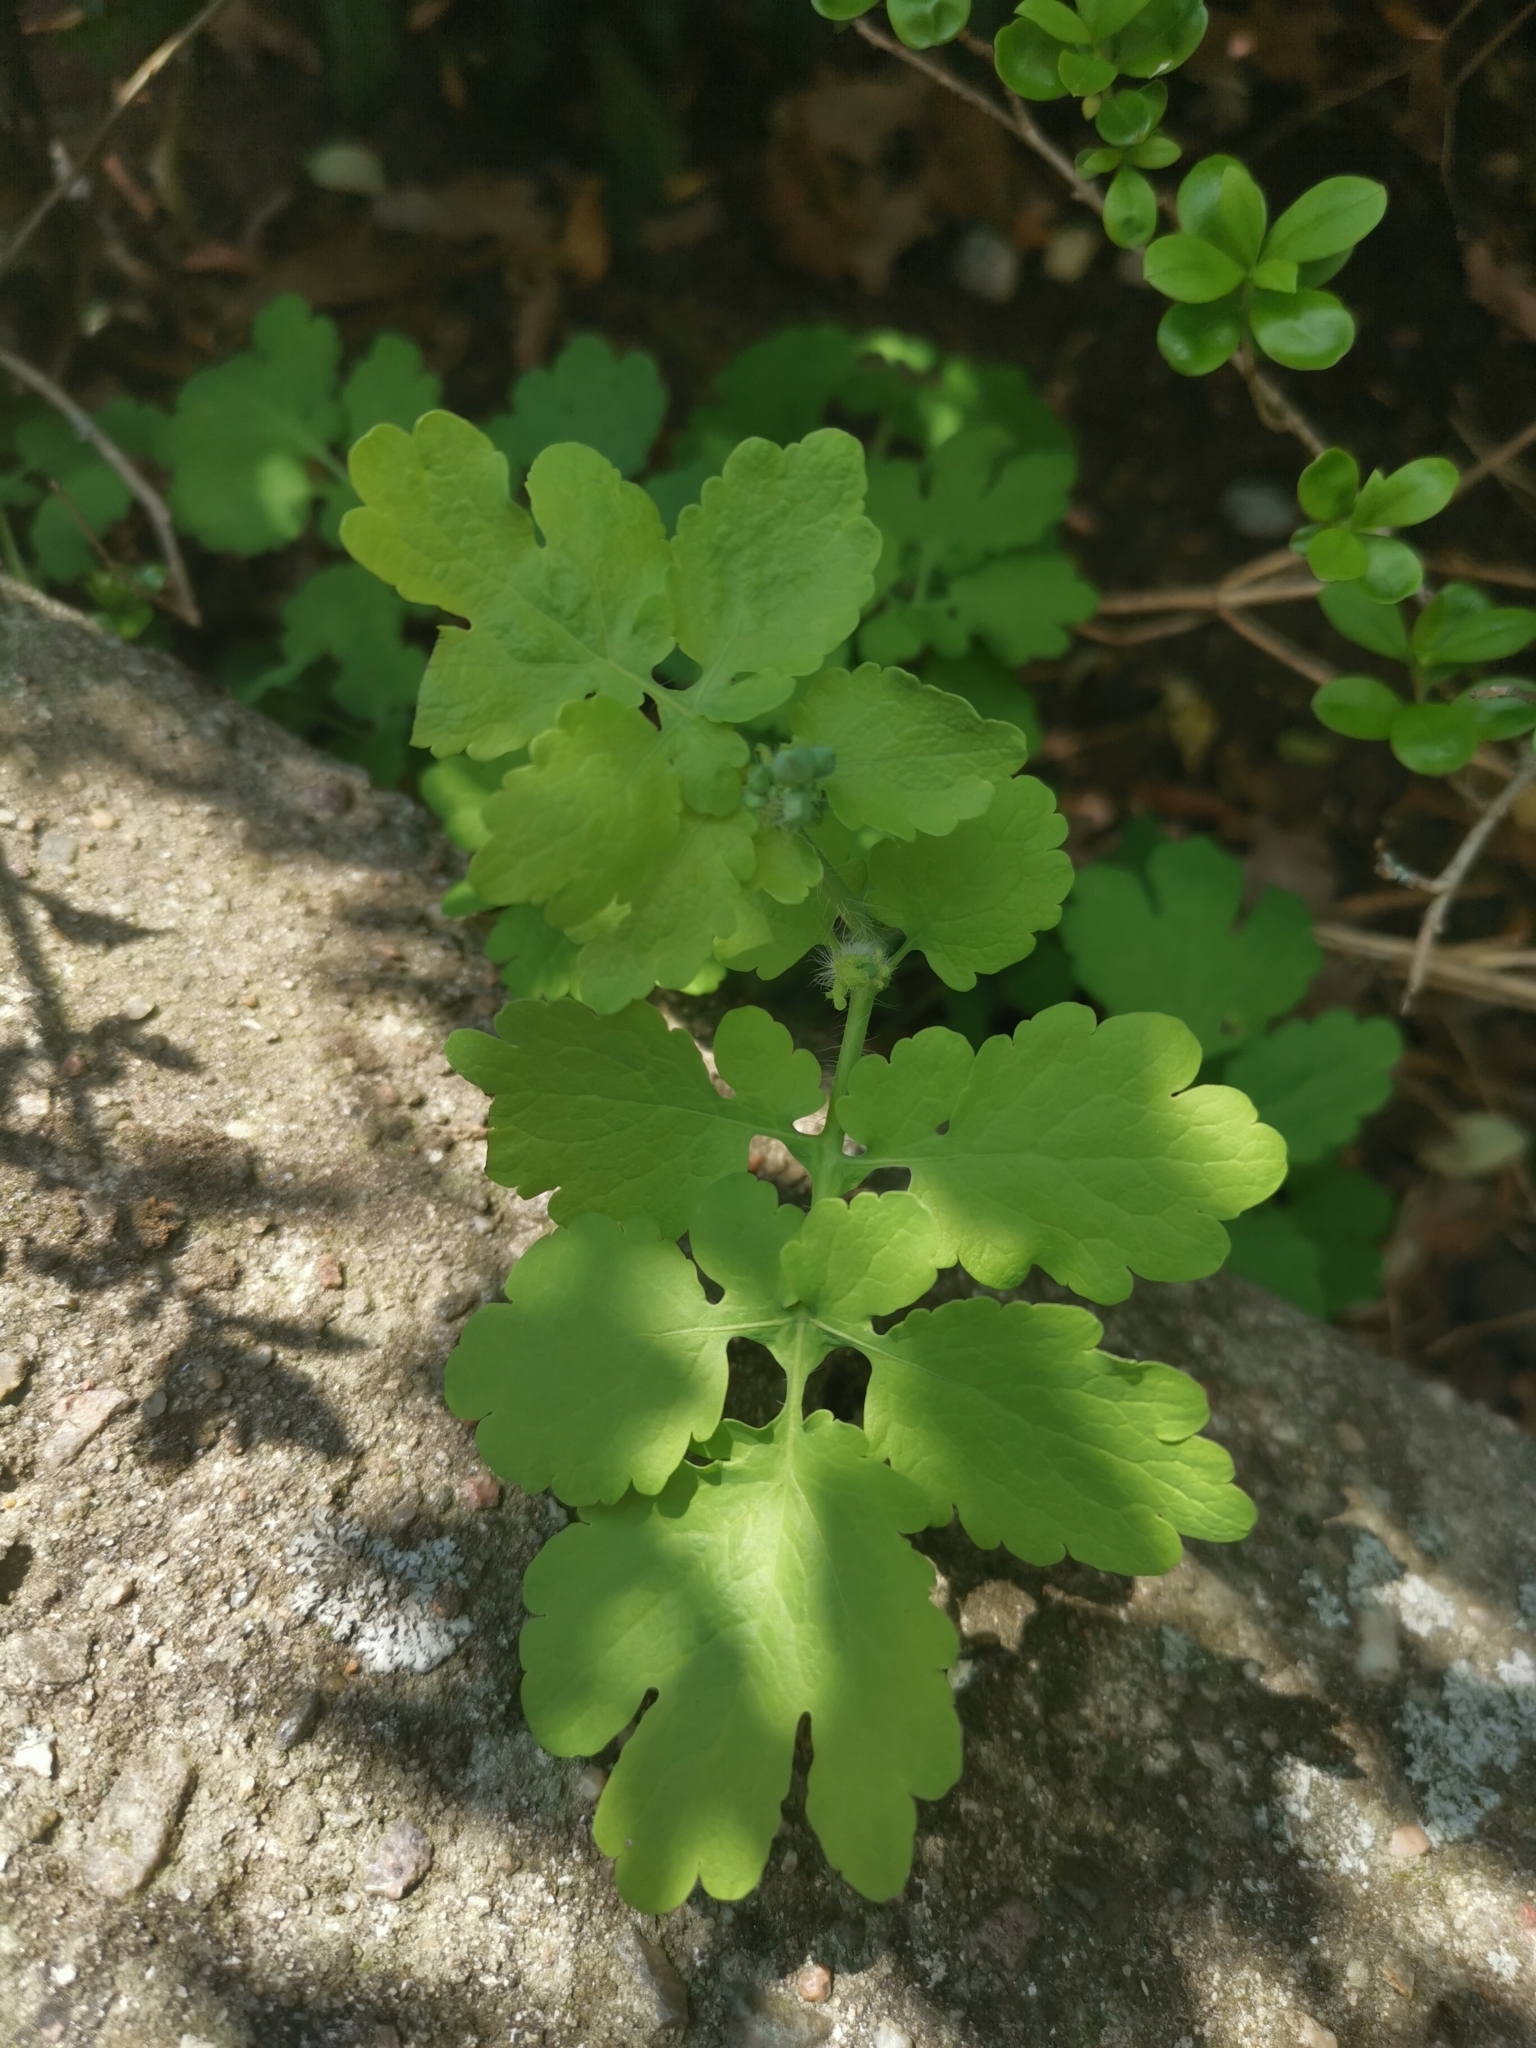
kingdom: Plantae
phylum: Tracheophyta
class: Magnoliopsida
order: Ranunculales
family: Papaveraceae
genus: Chelidonium
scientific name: Chelidonium majus
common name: Greater celandine
